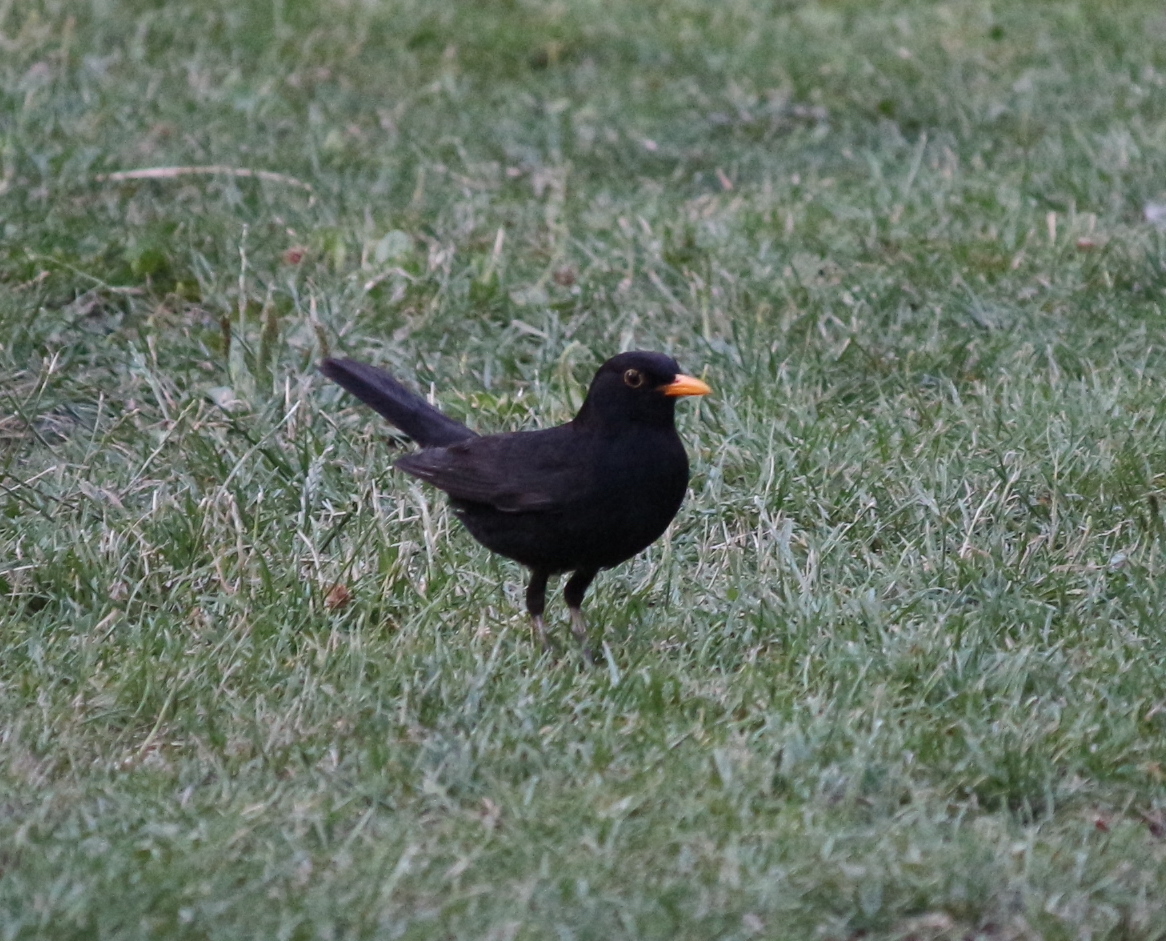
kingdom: Animalia
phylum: Chordata
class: Aves
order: Passeriformes
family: Turdidae
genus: Turdus
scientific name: Turdus merula
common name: Common blackbird
